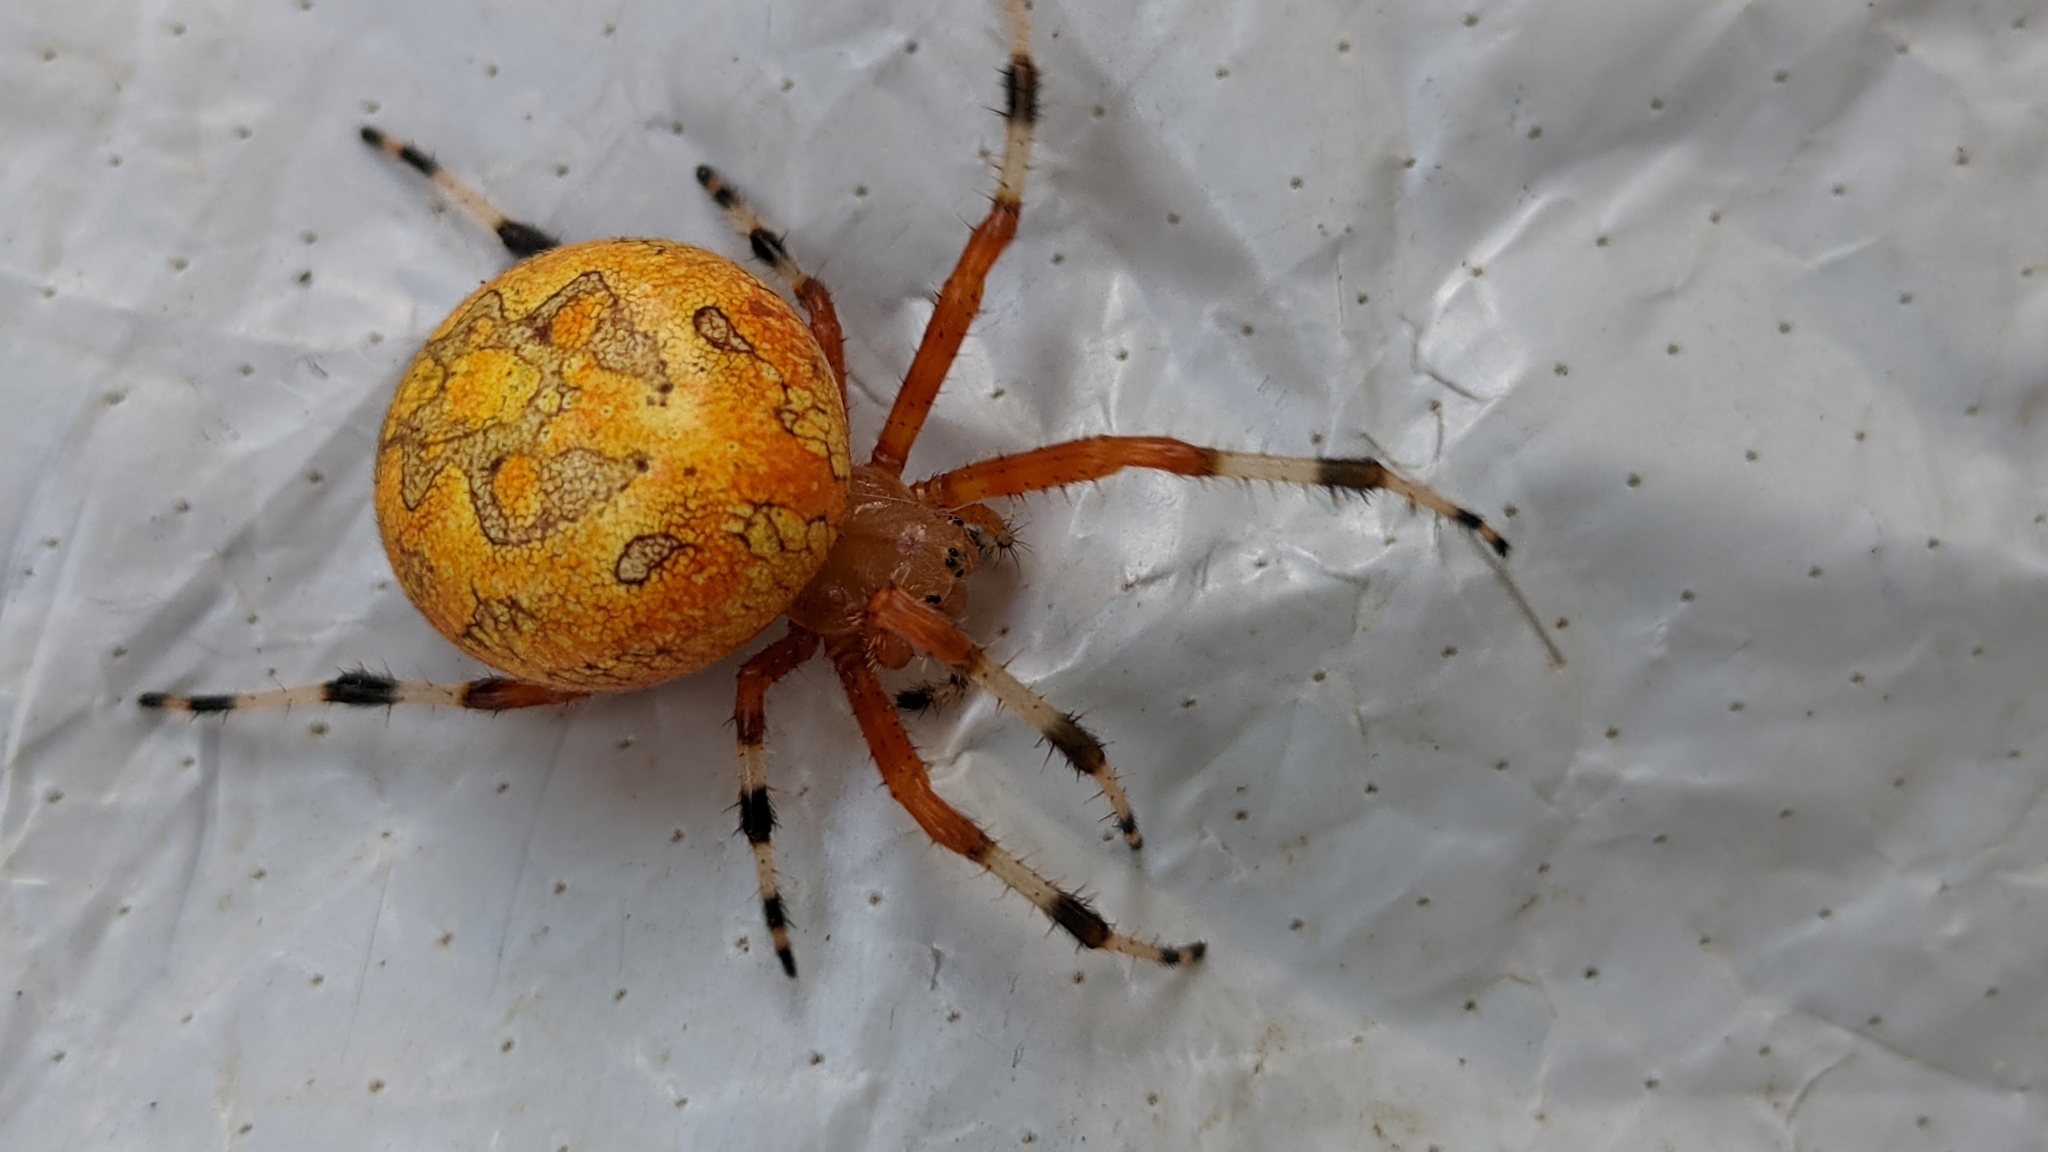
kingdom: Animalia
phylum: Arthropoda
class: Arachnida
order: Araneae
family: Araneidae
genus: Araneus
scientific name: Araneus marmoreus
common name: Marbled orbweaver
